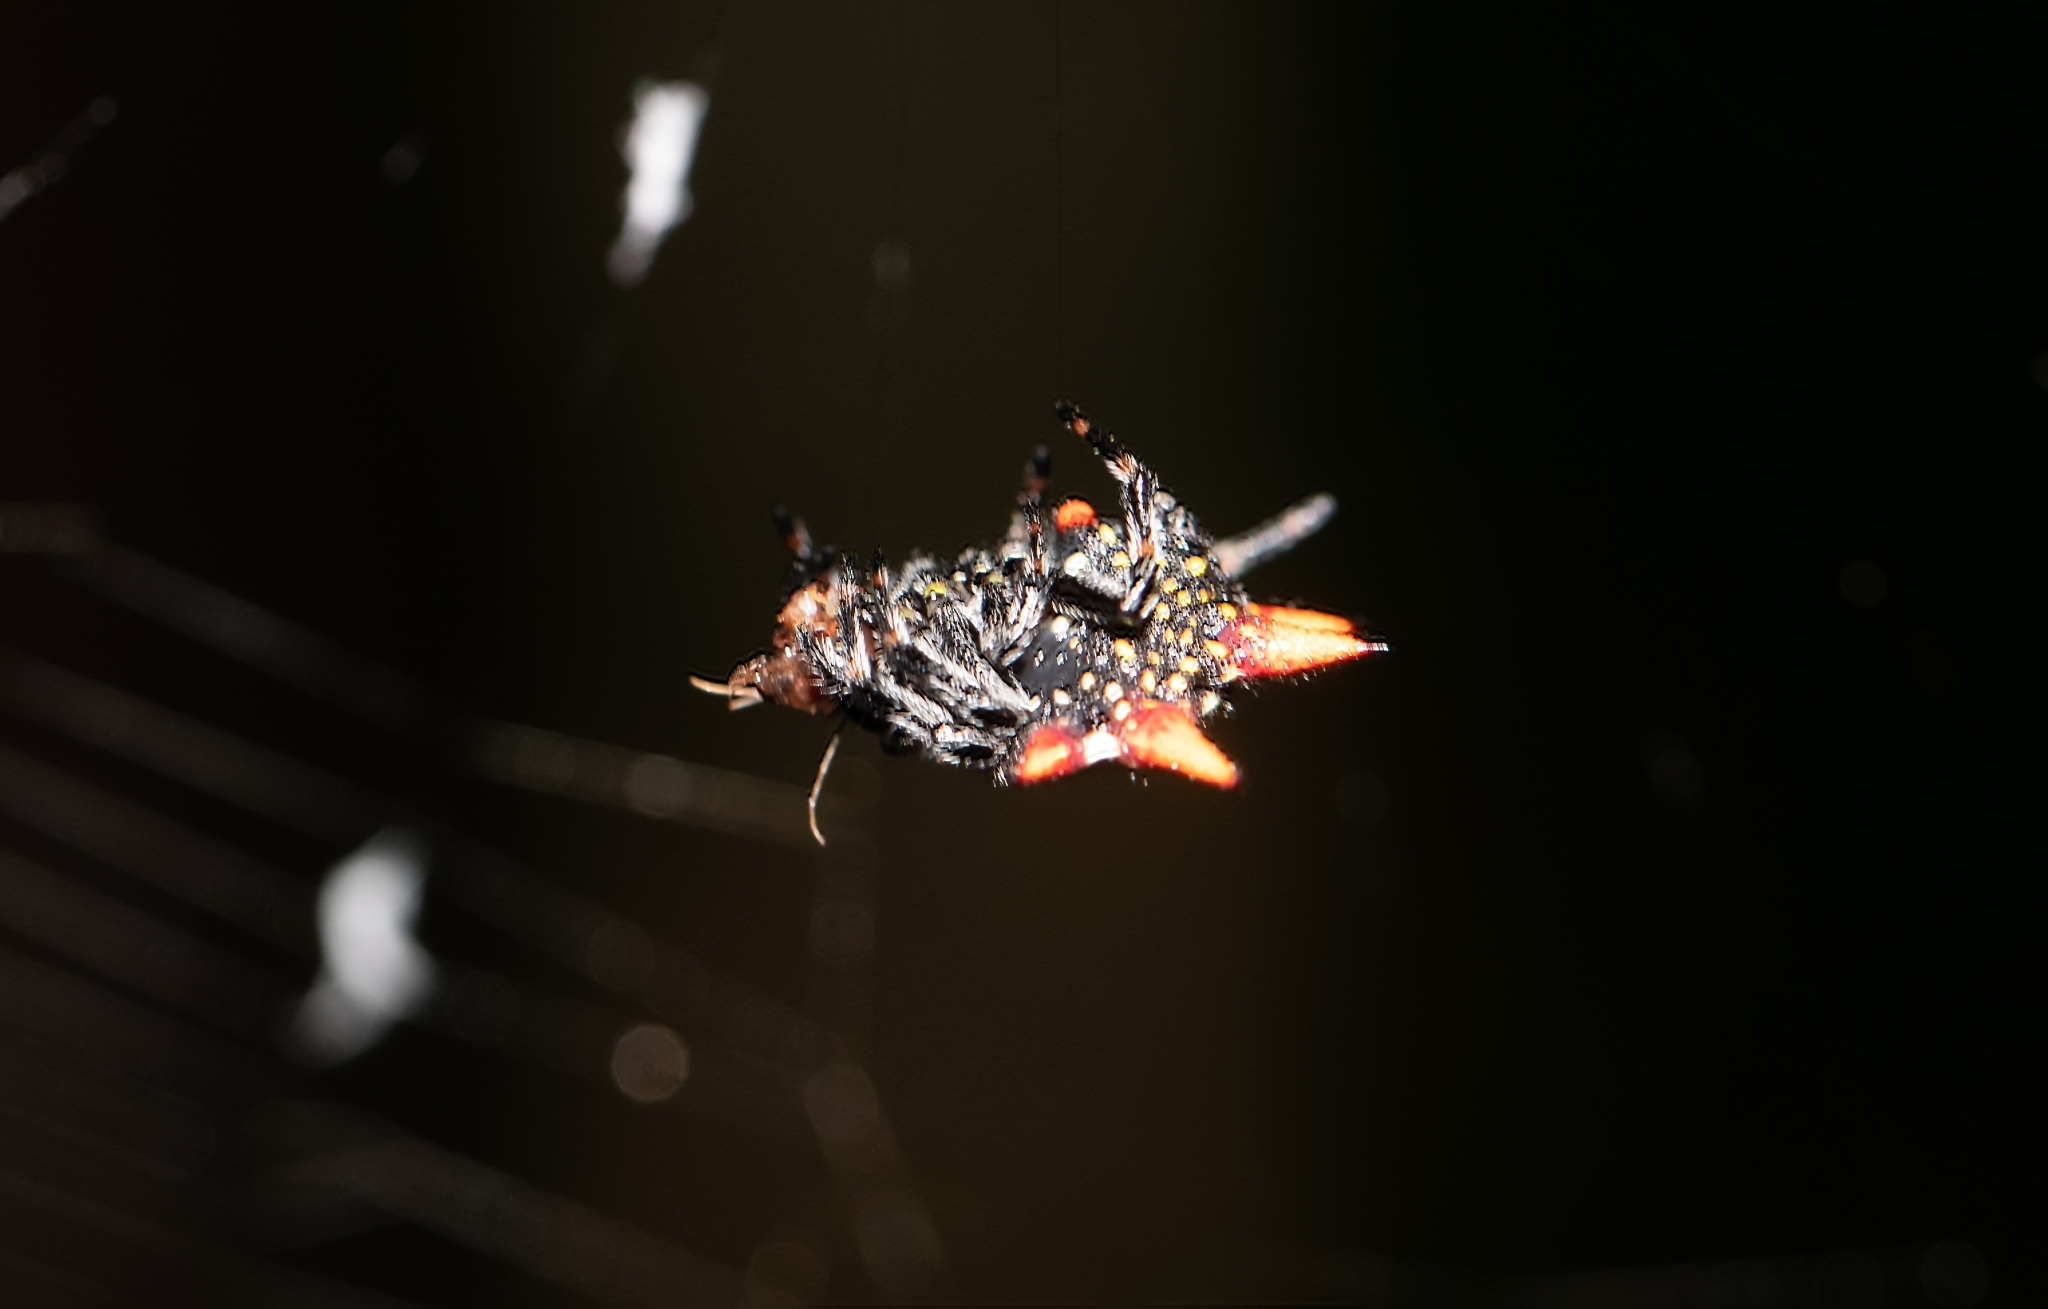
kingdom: Animalia
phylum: Arthropoda
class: Arachnida
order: Araneae
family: Araneidae
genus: Gasteracantha
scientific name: Gasteracantha cancriformis
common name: Orb weavers
